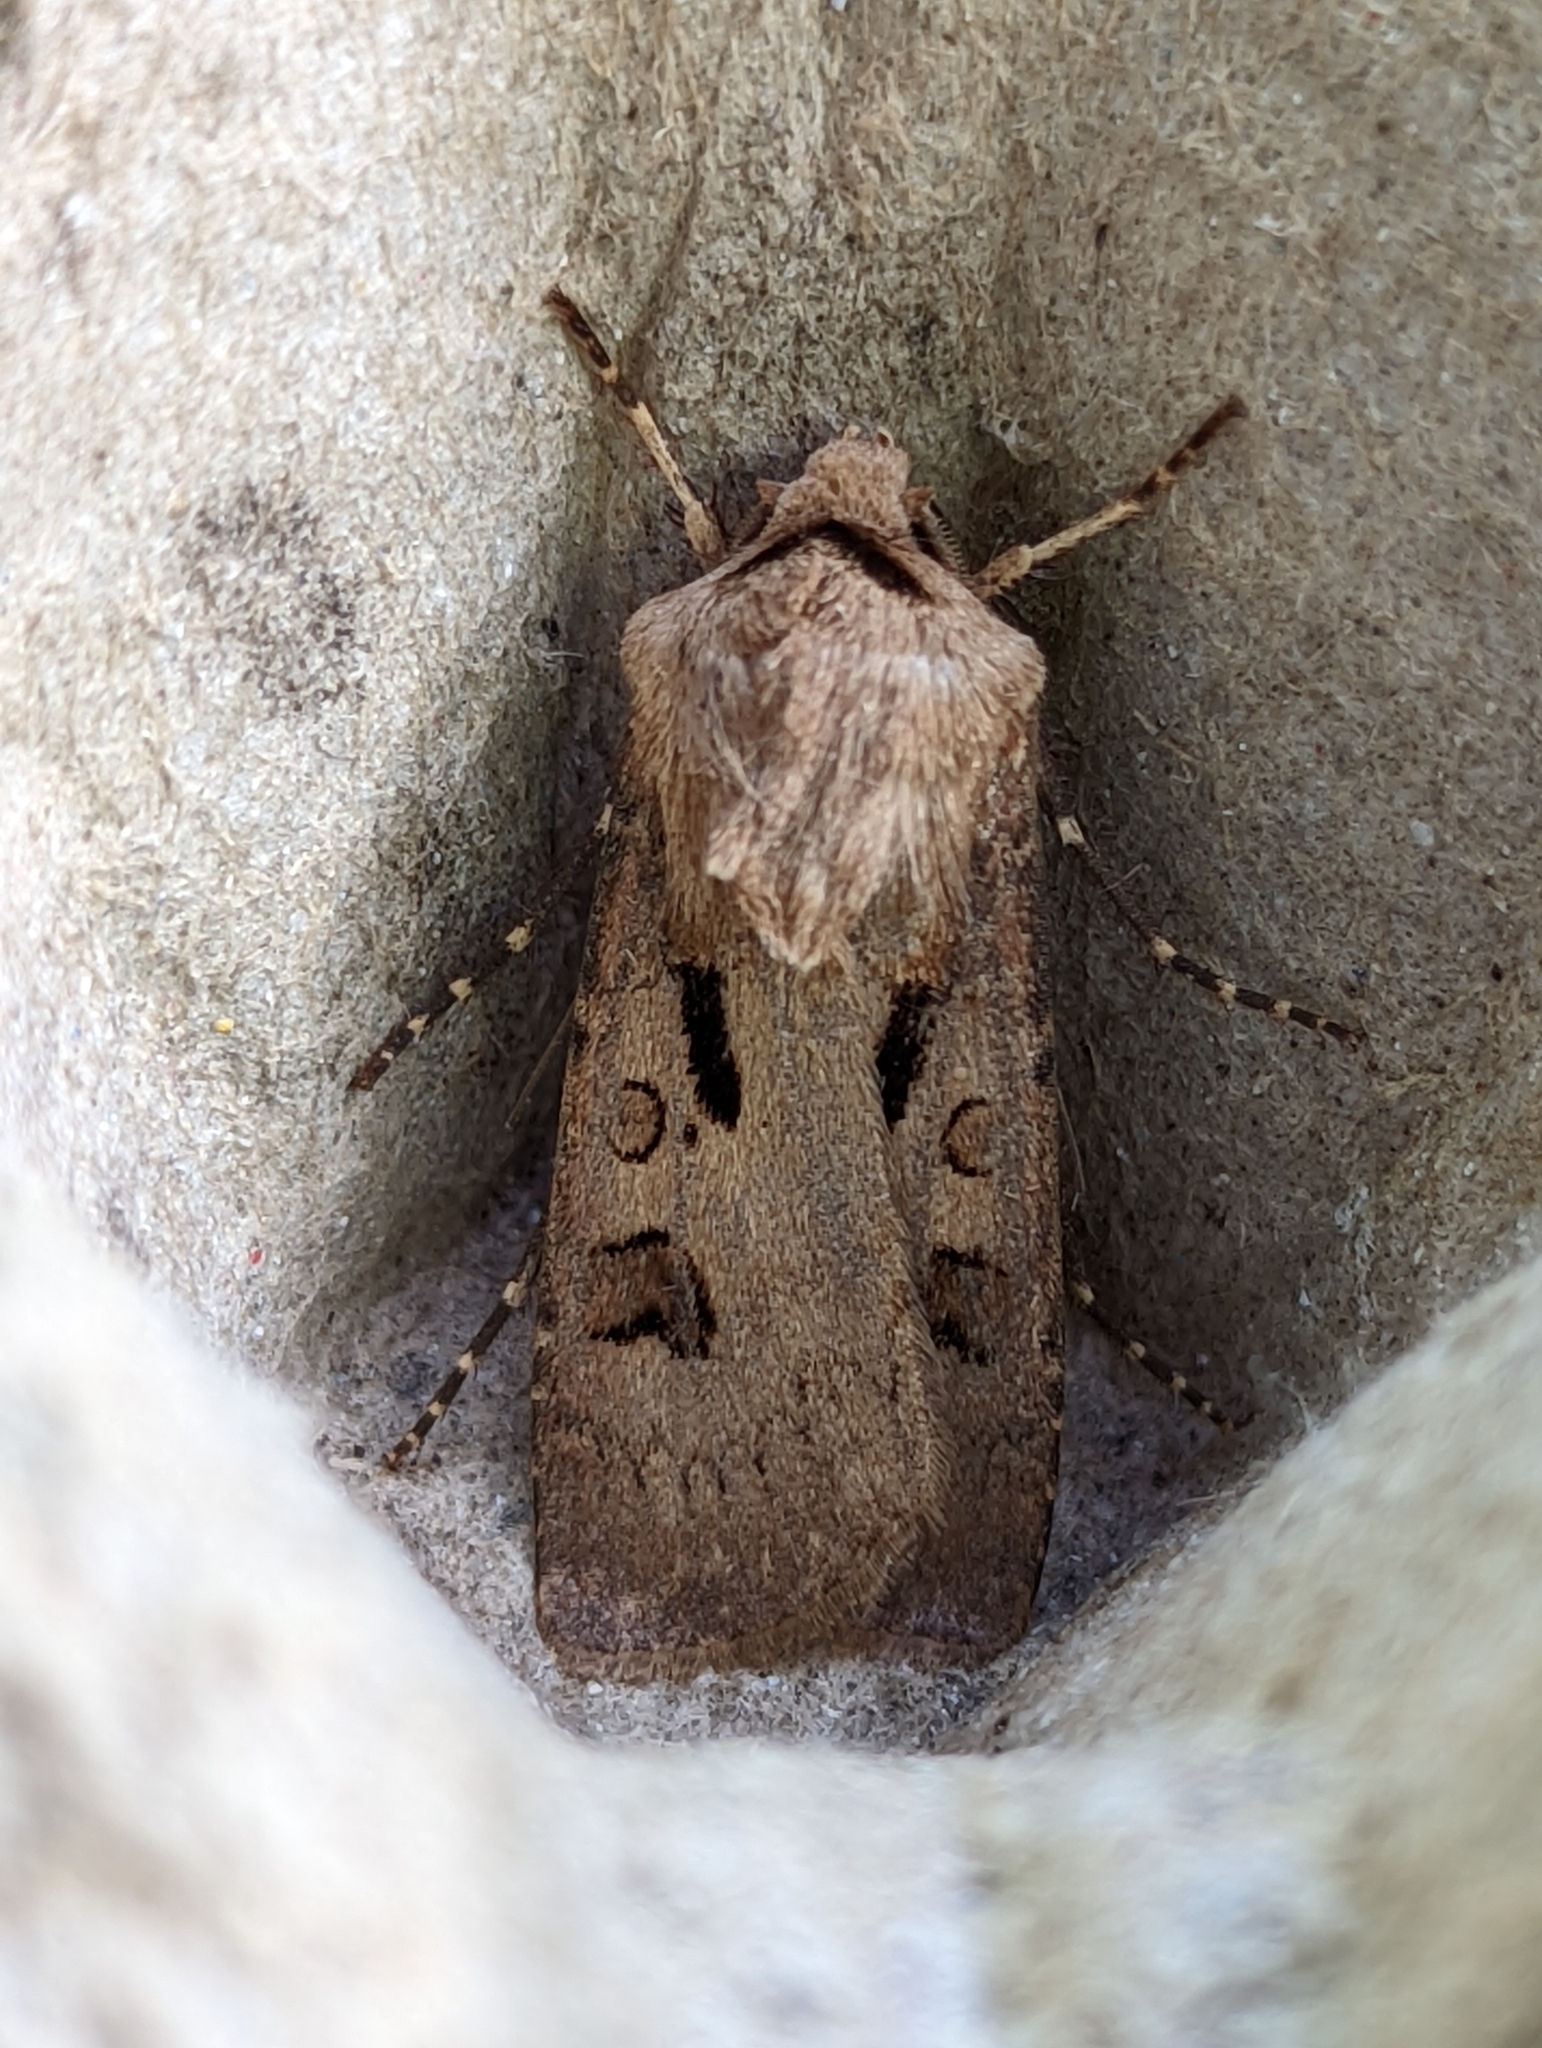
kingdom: Animalia
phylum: Arthropoda
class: Insecta
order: Lepidoptera
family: Noctuidae
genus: Agrotis
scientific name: Agrotis exclamationis
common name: Heart and dart
